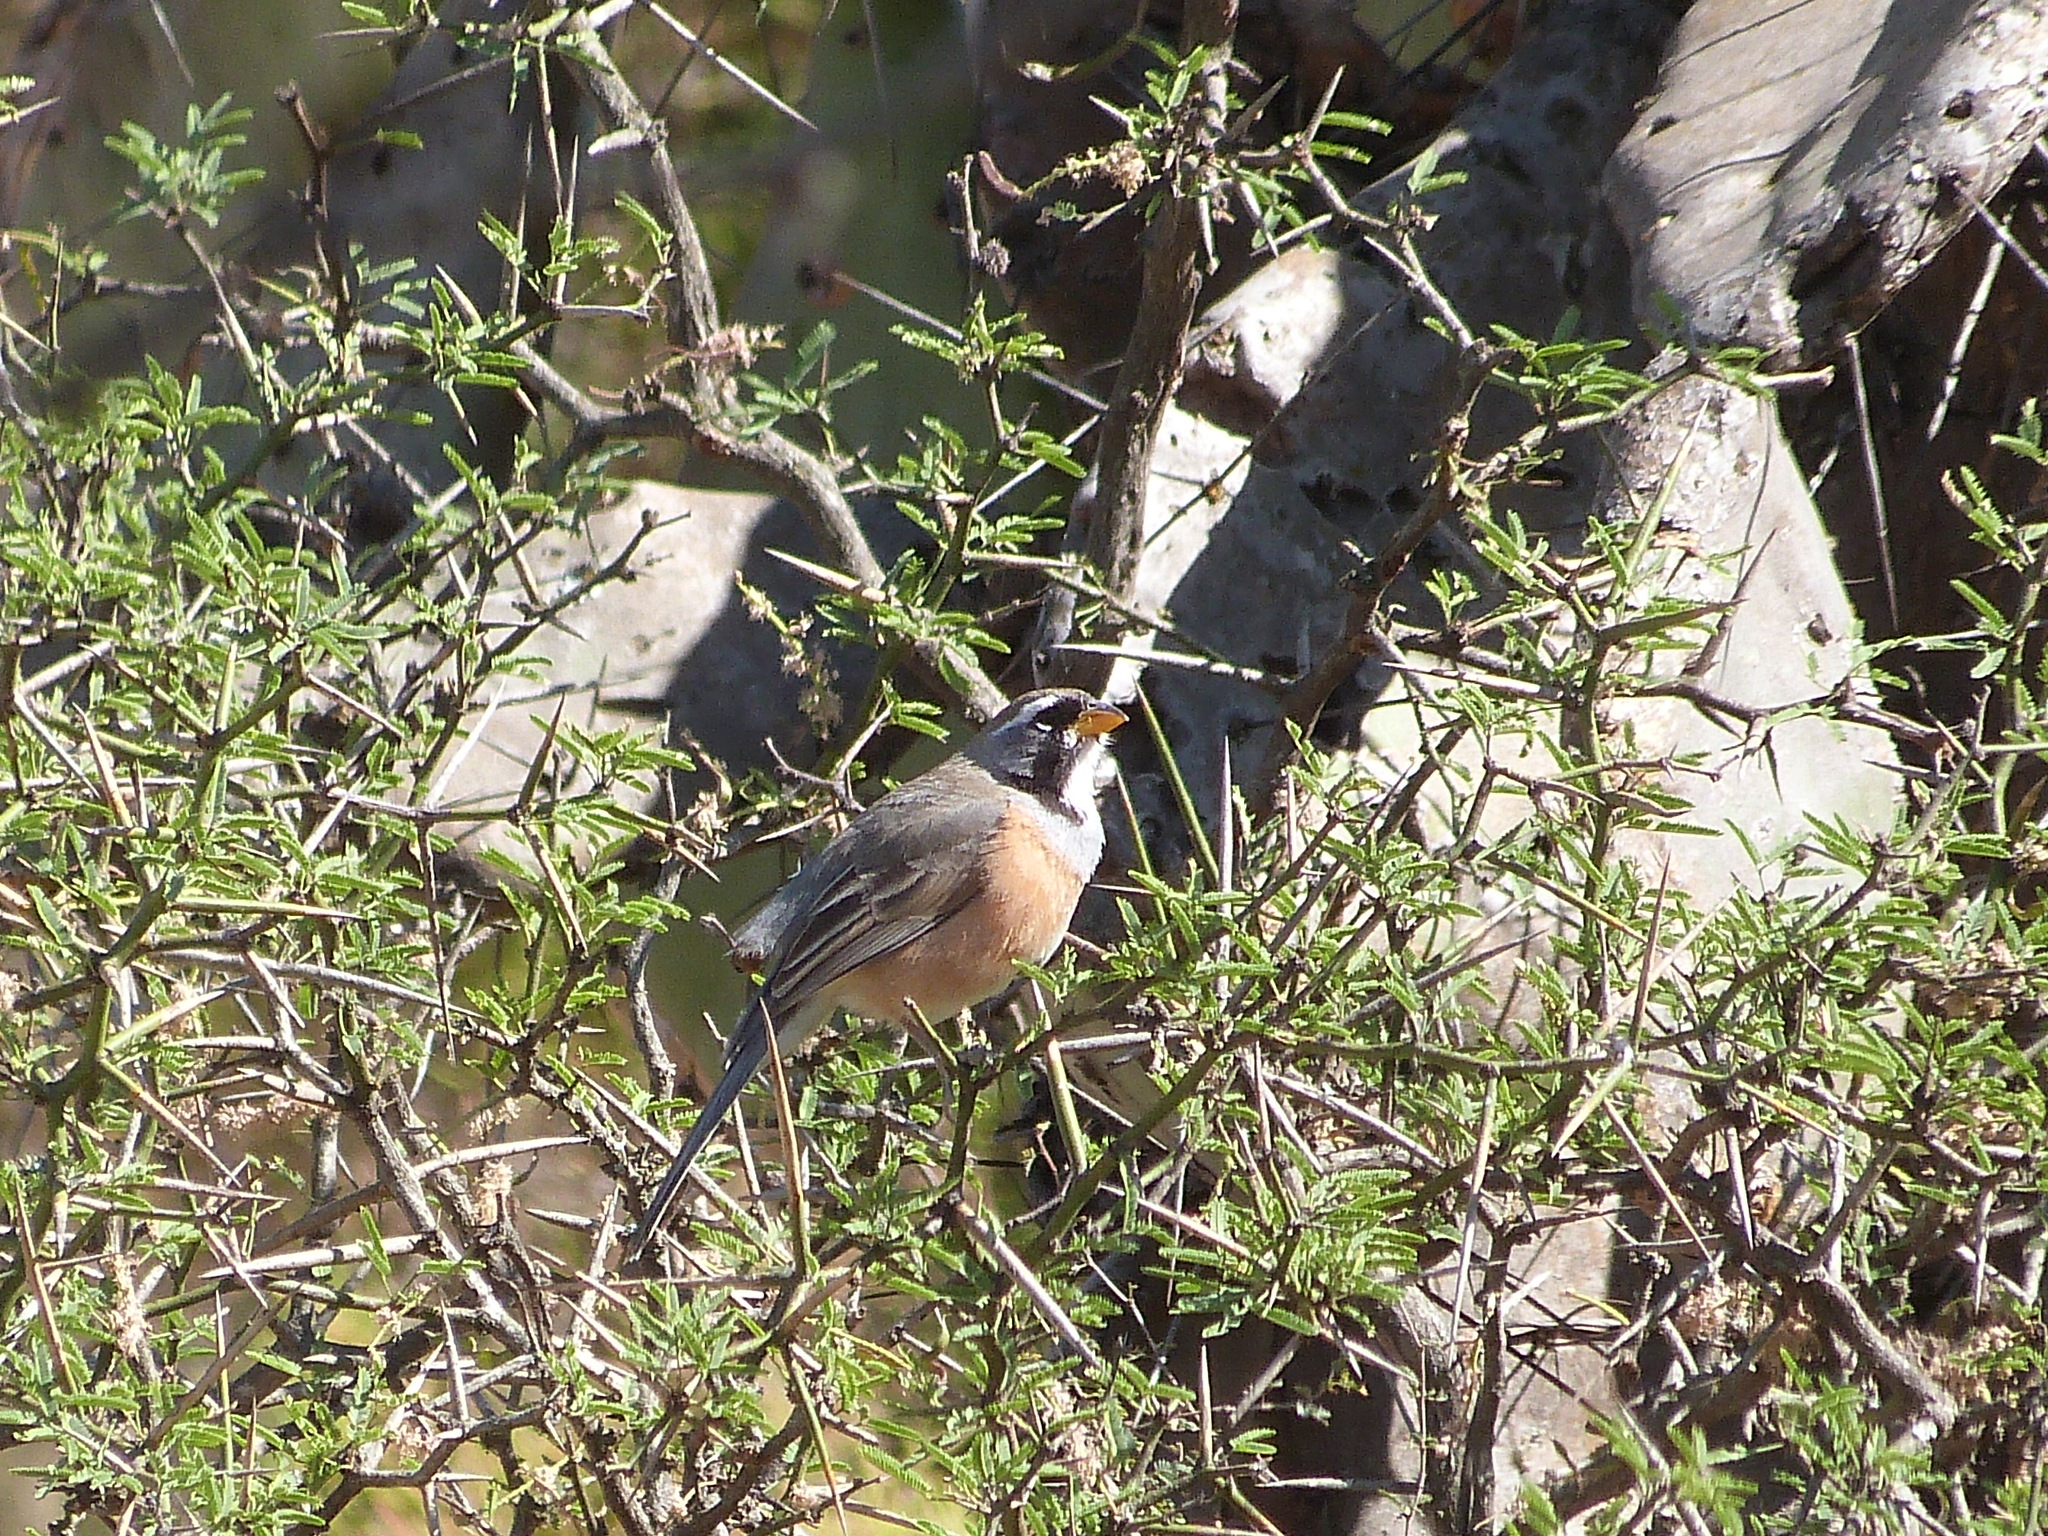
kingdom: Animalia
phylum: Chordata
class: Aves
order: Passeriformes
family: Thraupidae
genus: Saltatricula
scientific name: Saltatricula multicolor
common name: Many-colored chaco finch
